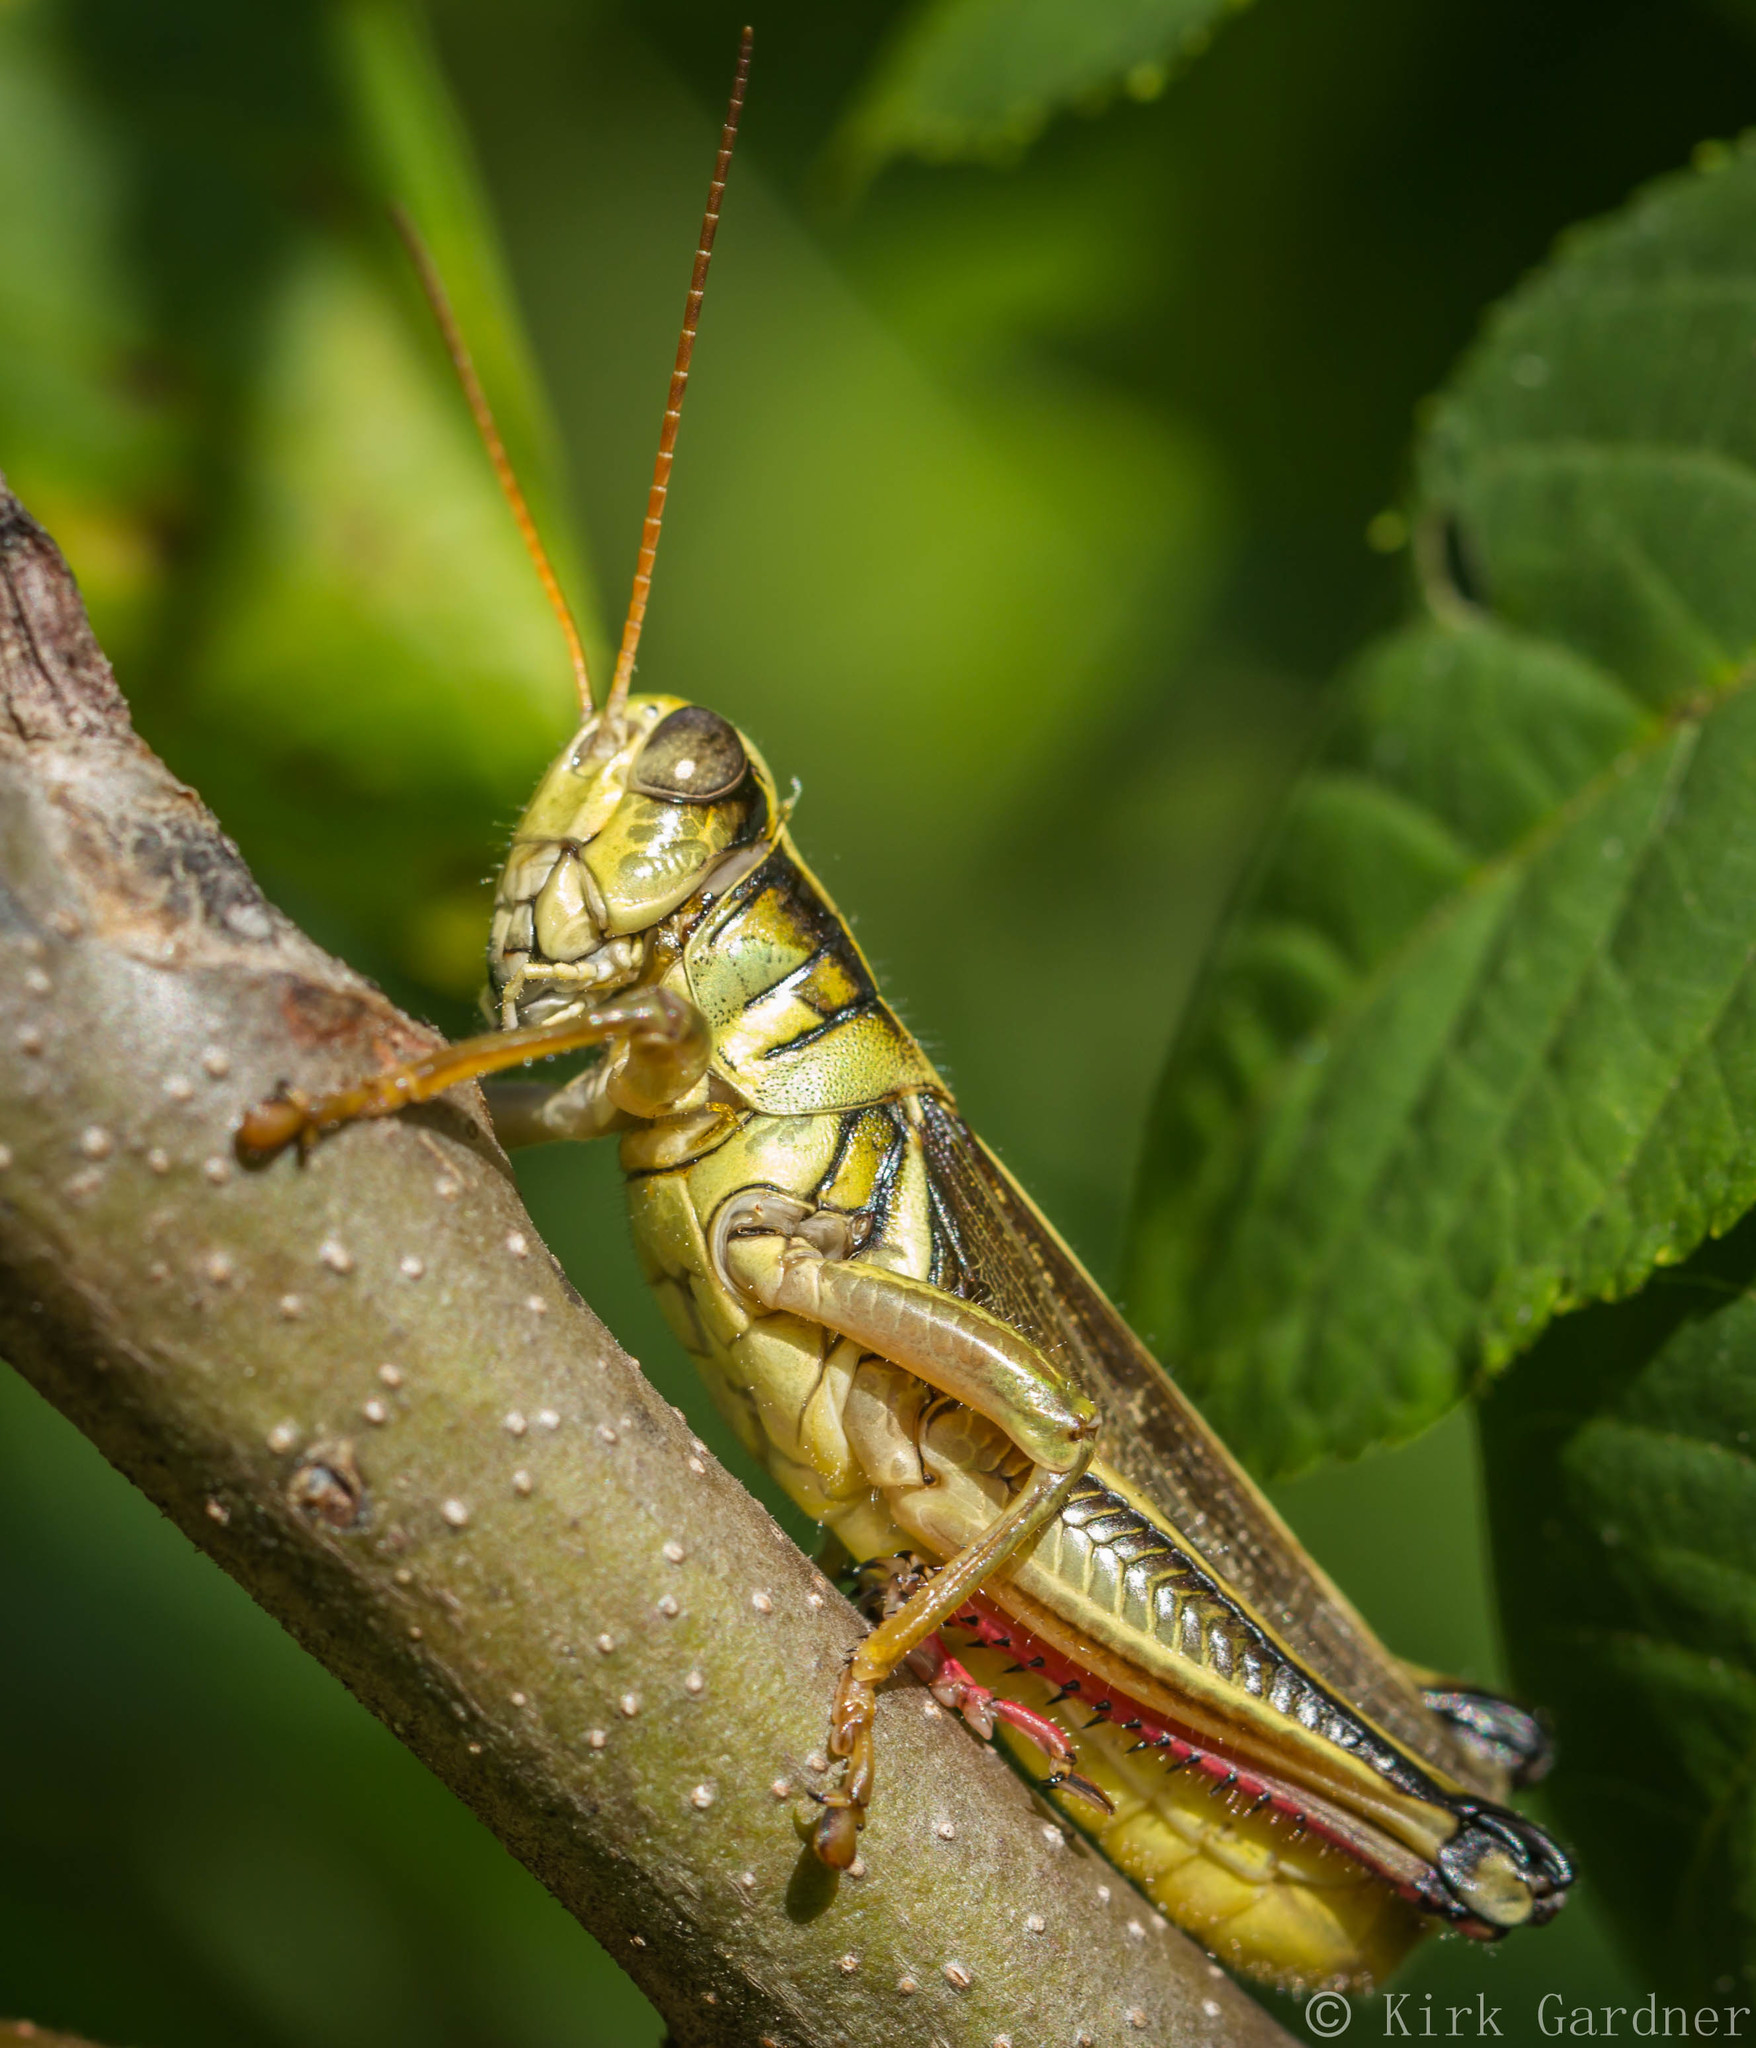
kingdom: Animalia
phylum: Arthropoda
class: Insecta
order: Orthoptera
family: Acrididae
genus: Melanoplus
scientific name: Melanoplus bivittatus
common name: Two-striped grasshopper
